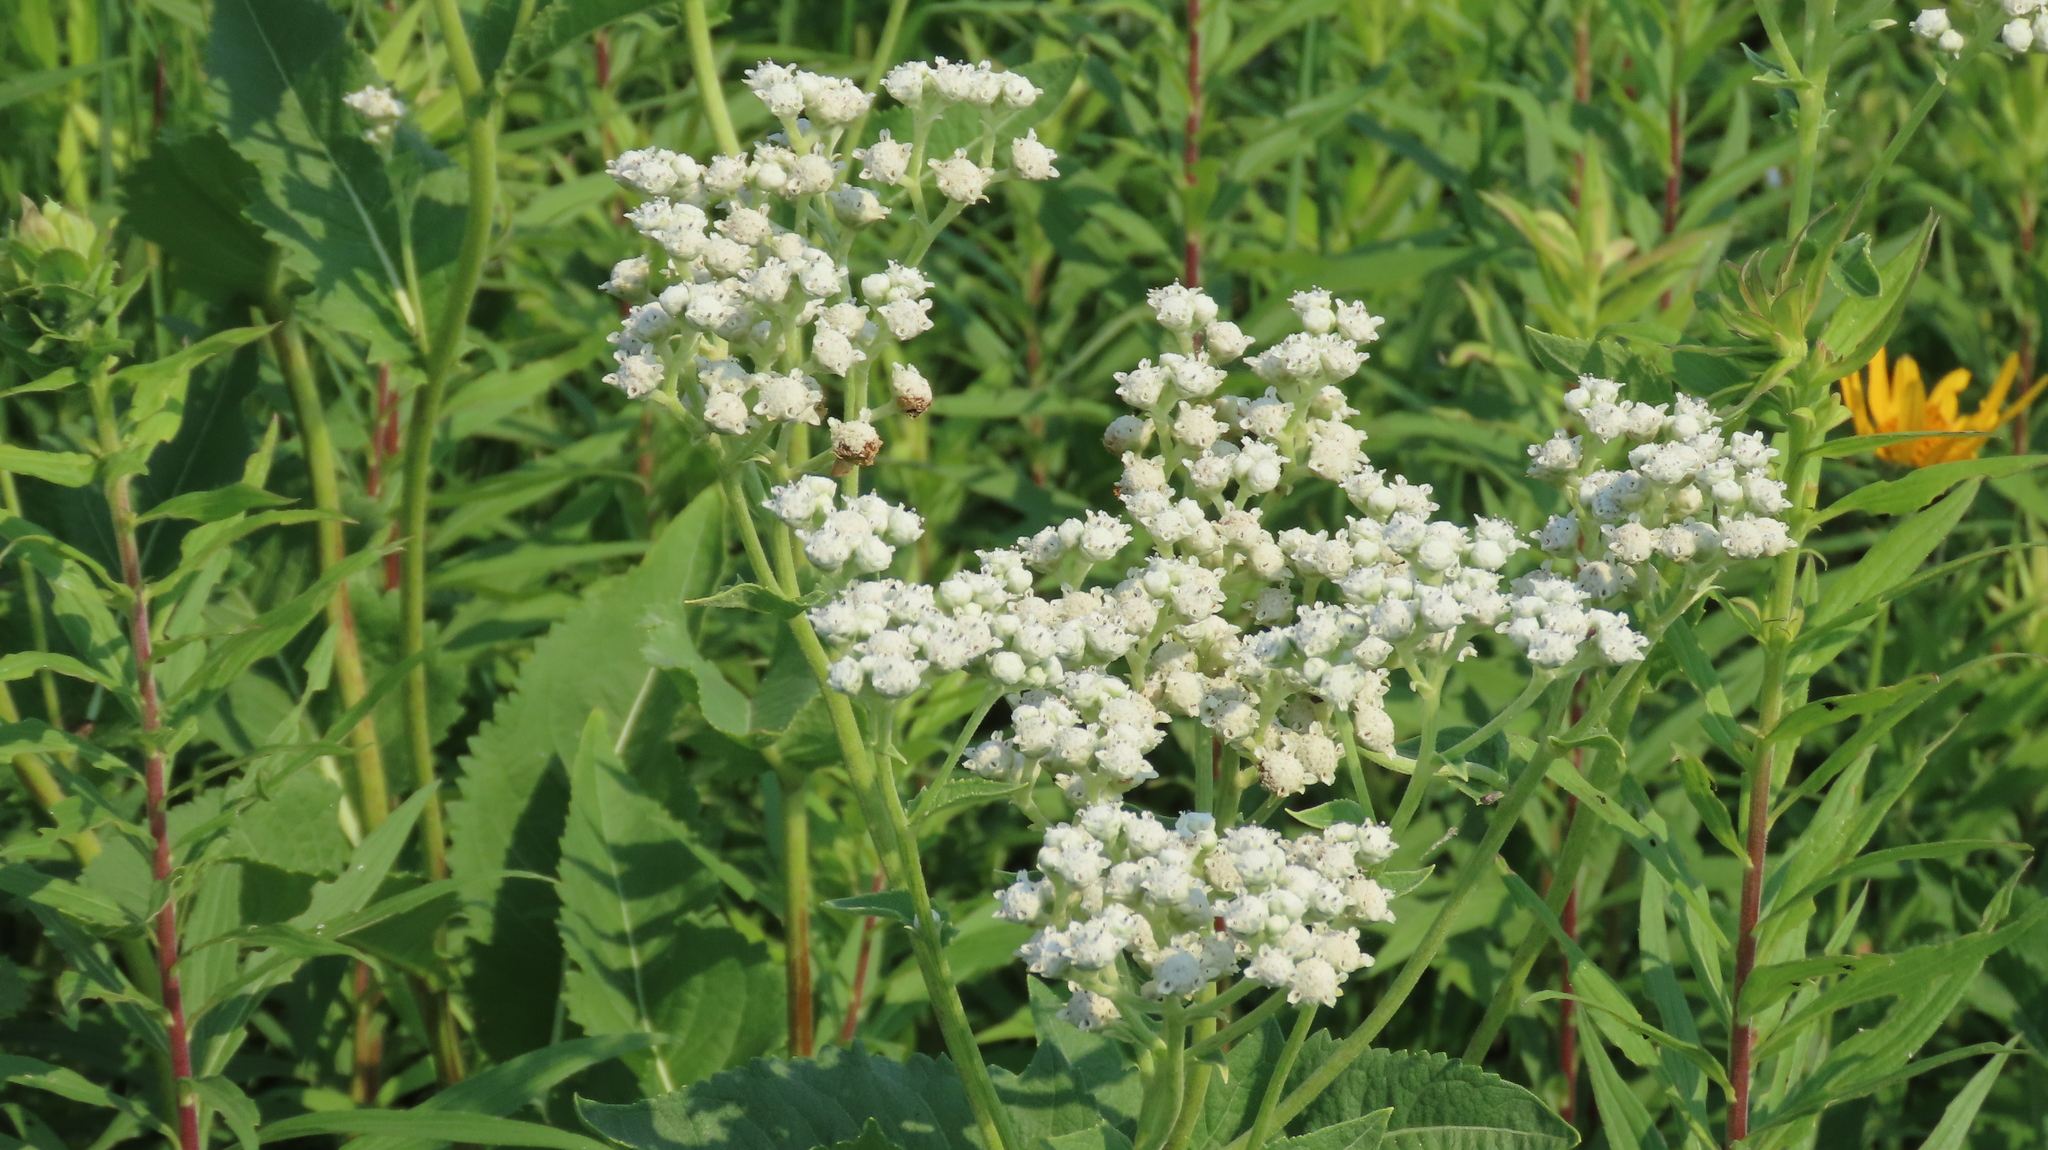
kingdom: Plantae
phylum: Tracheophyta
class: Magnoliopsida
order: Asterales
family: Asteraceae
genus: Parthenium
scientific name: Parthenium integrifolium
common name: American feverfew
